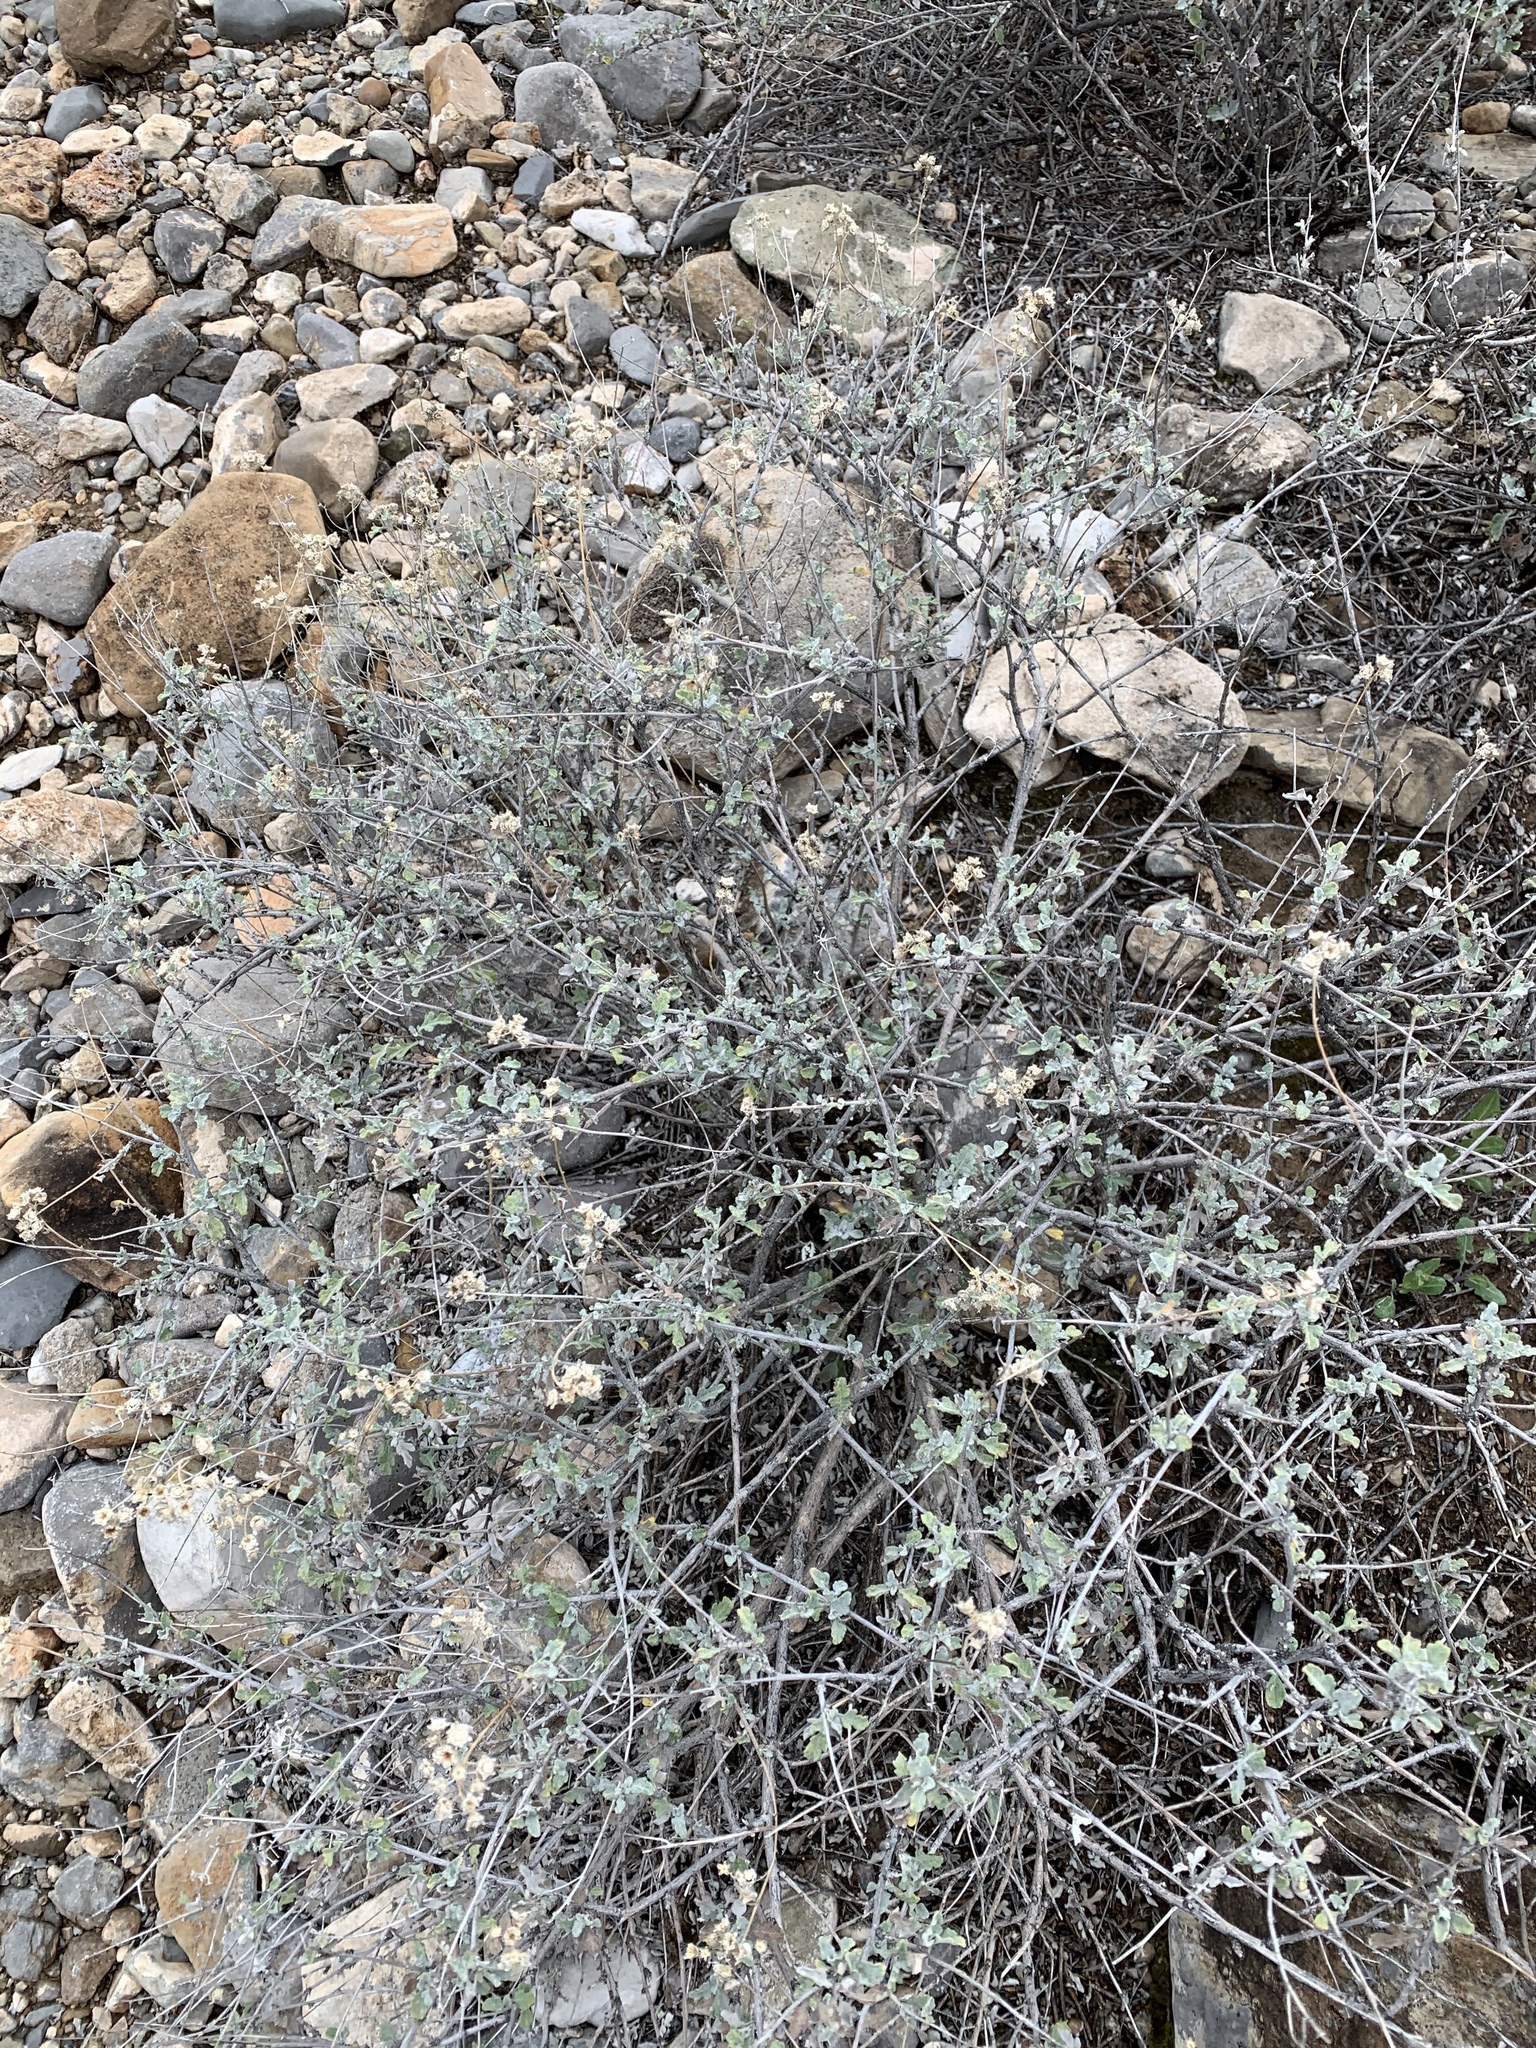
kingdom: Plantae
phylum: Tracheophyta
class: Magnoliopsida
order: Asterales
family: Asteraceae
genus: Parthenium
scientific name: Parthenium incanum
